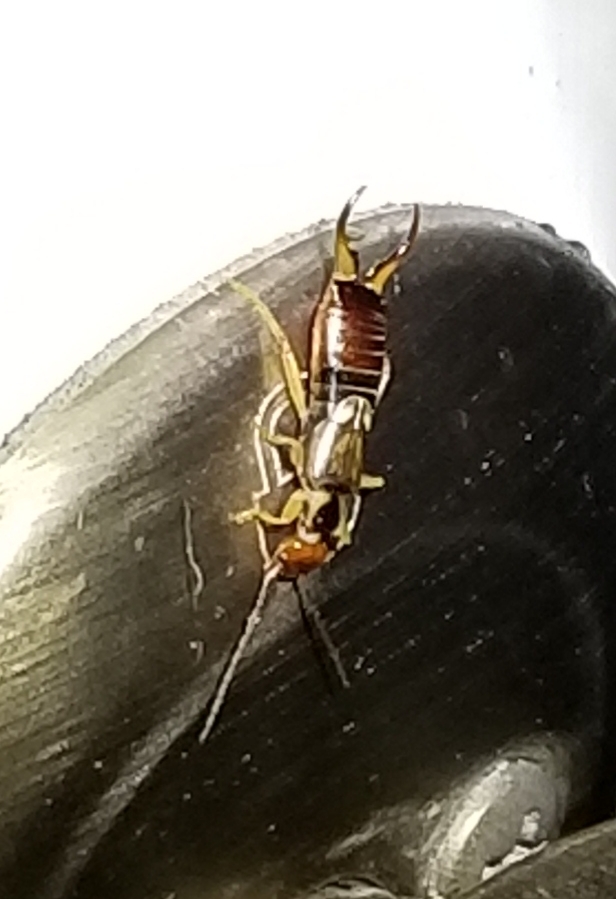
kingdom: Animalia
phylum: Arthropoda
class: Insecta
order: Dermaptera
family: Forficulidae
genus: Forficula
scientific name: Forficula
